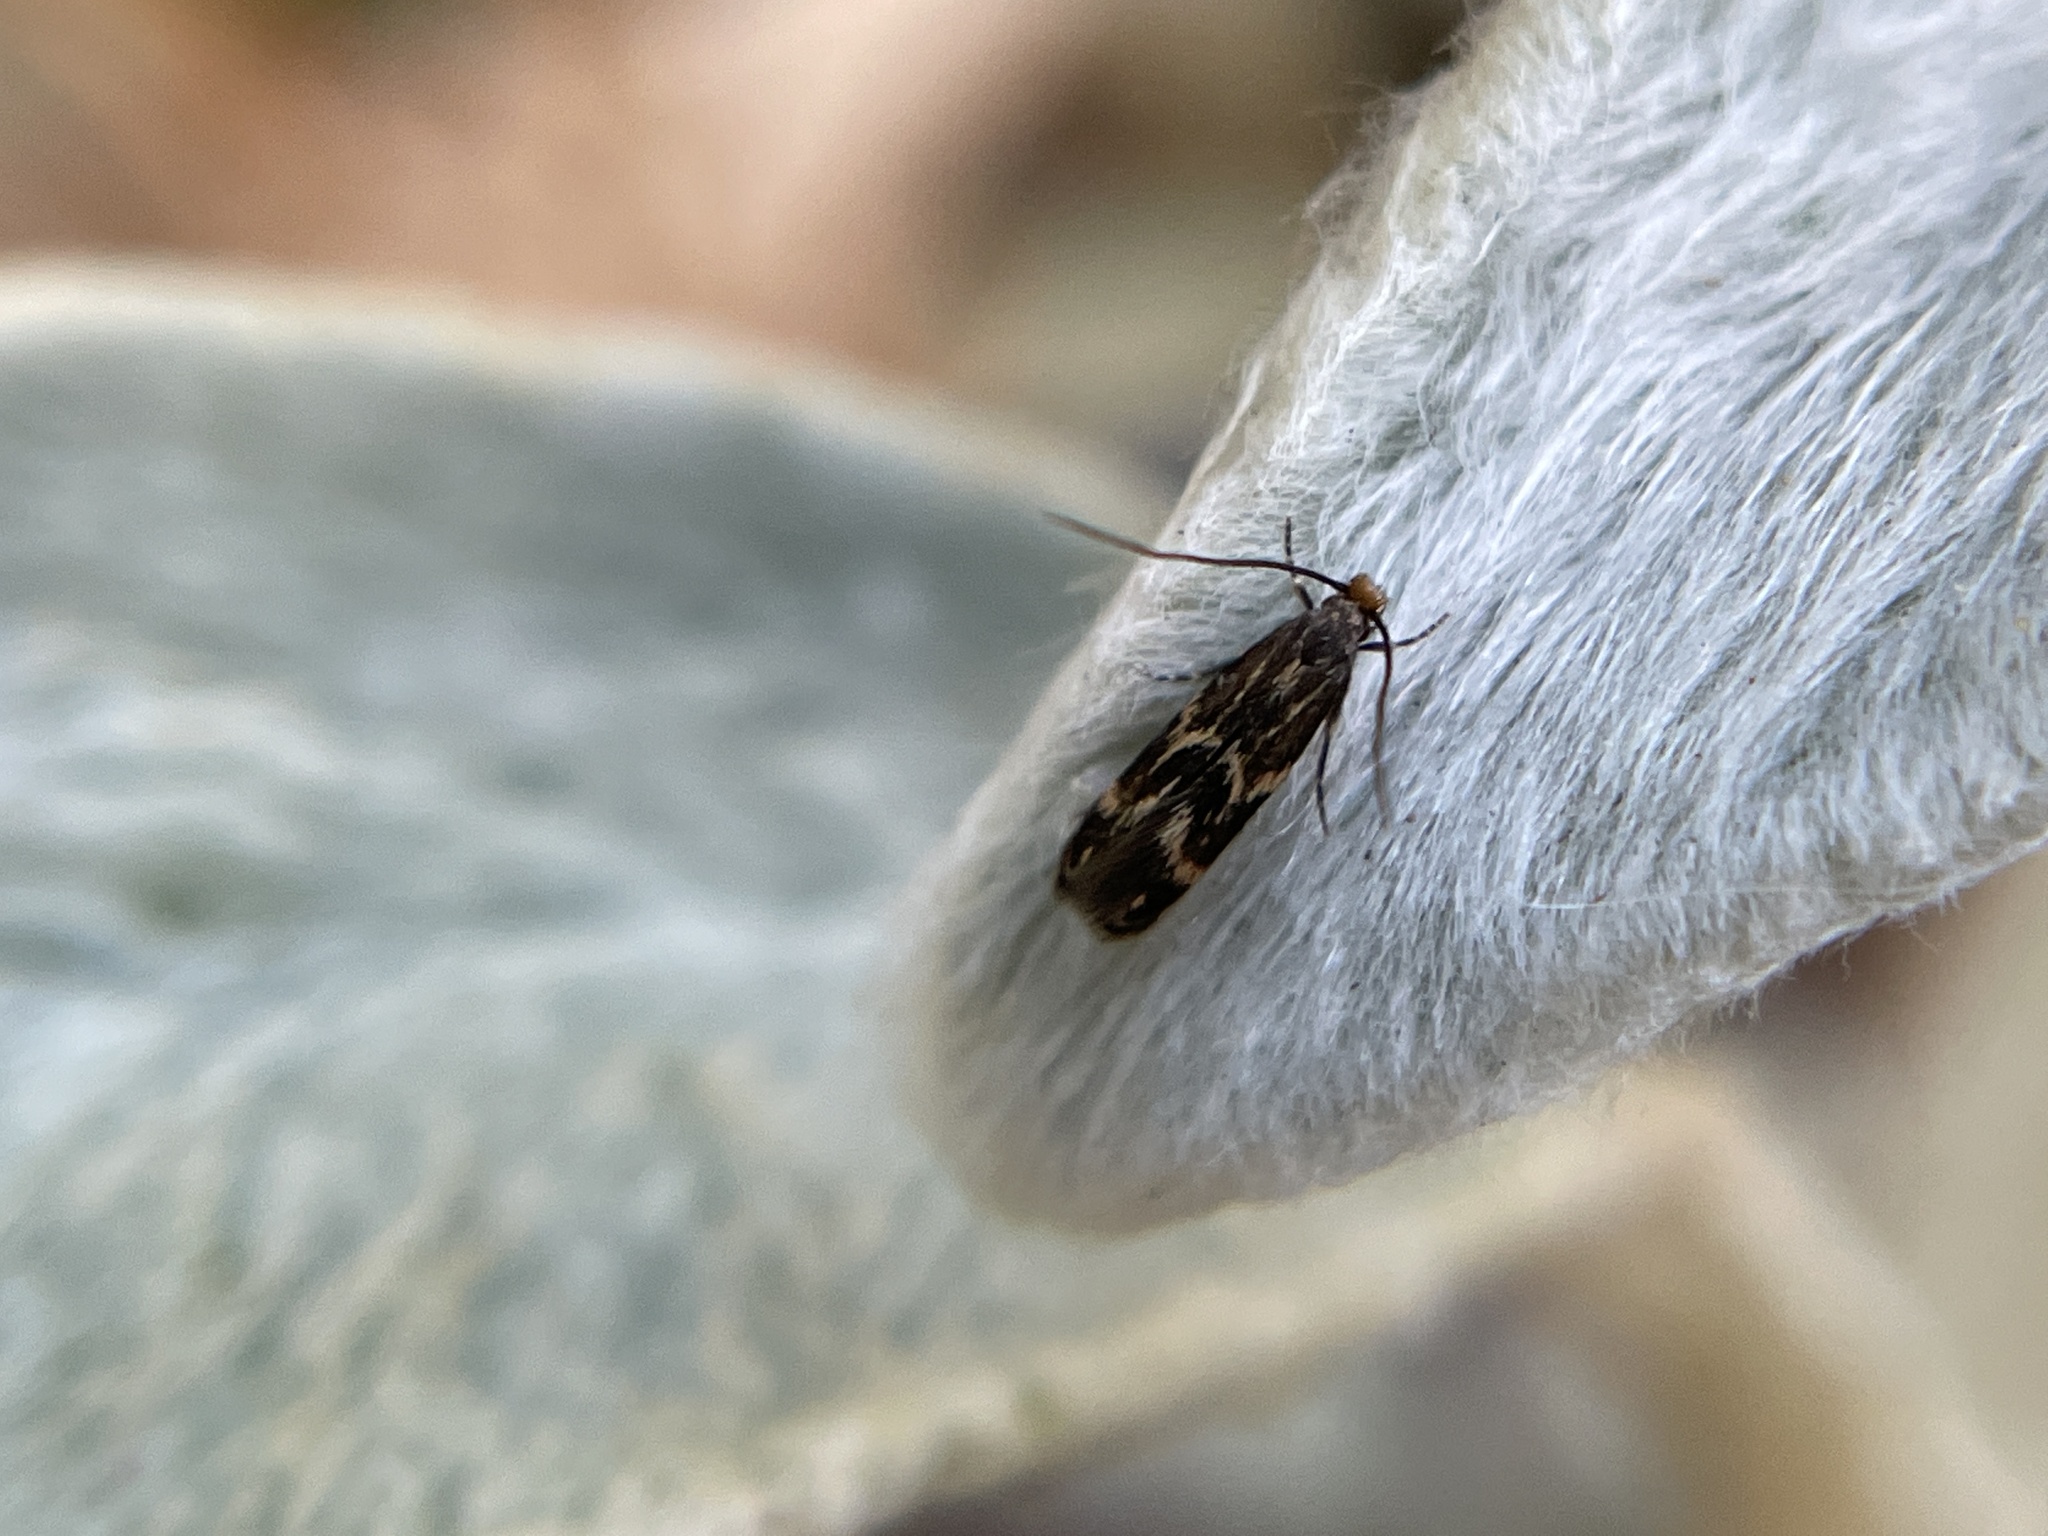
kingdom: Animalia
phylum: Arthropoda
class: Insecta
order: Lepidoptera
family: Tineidae
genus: Oinophila
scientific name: Oinophila v-flava
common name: Yellow v moth
